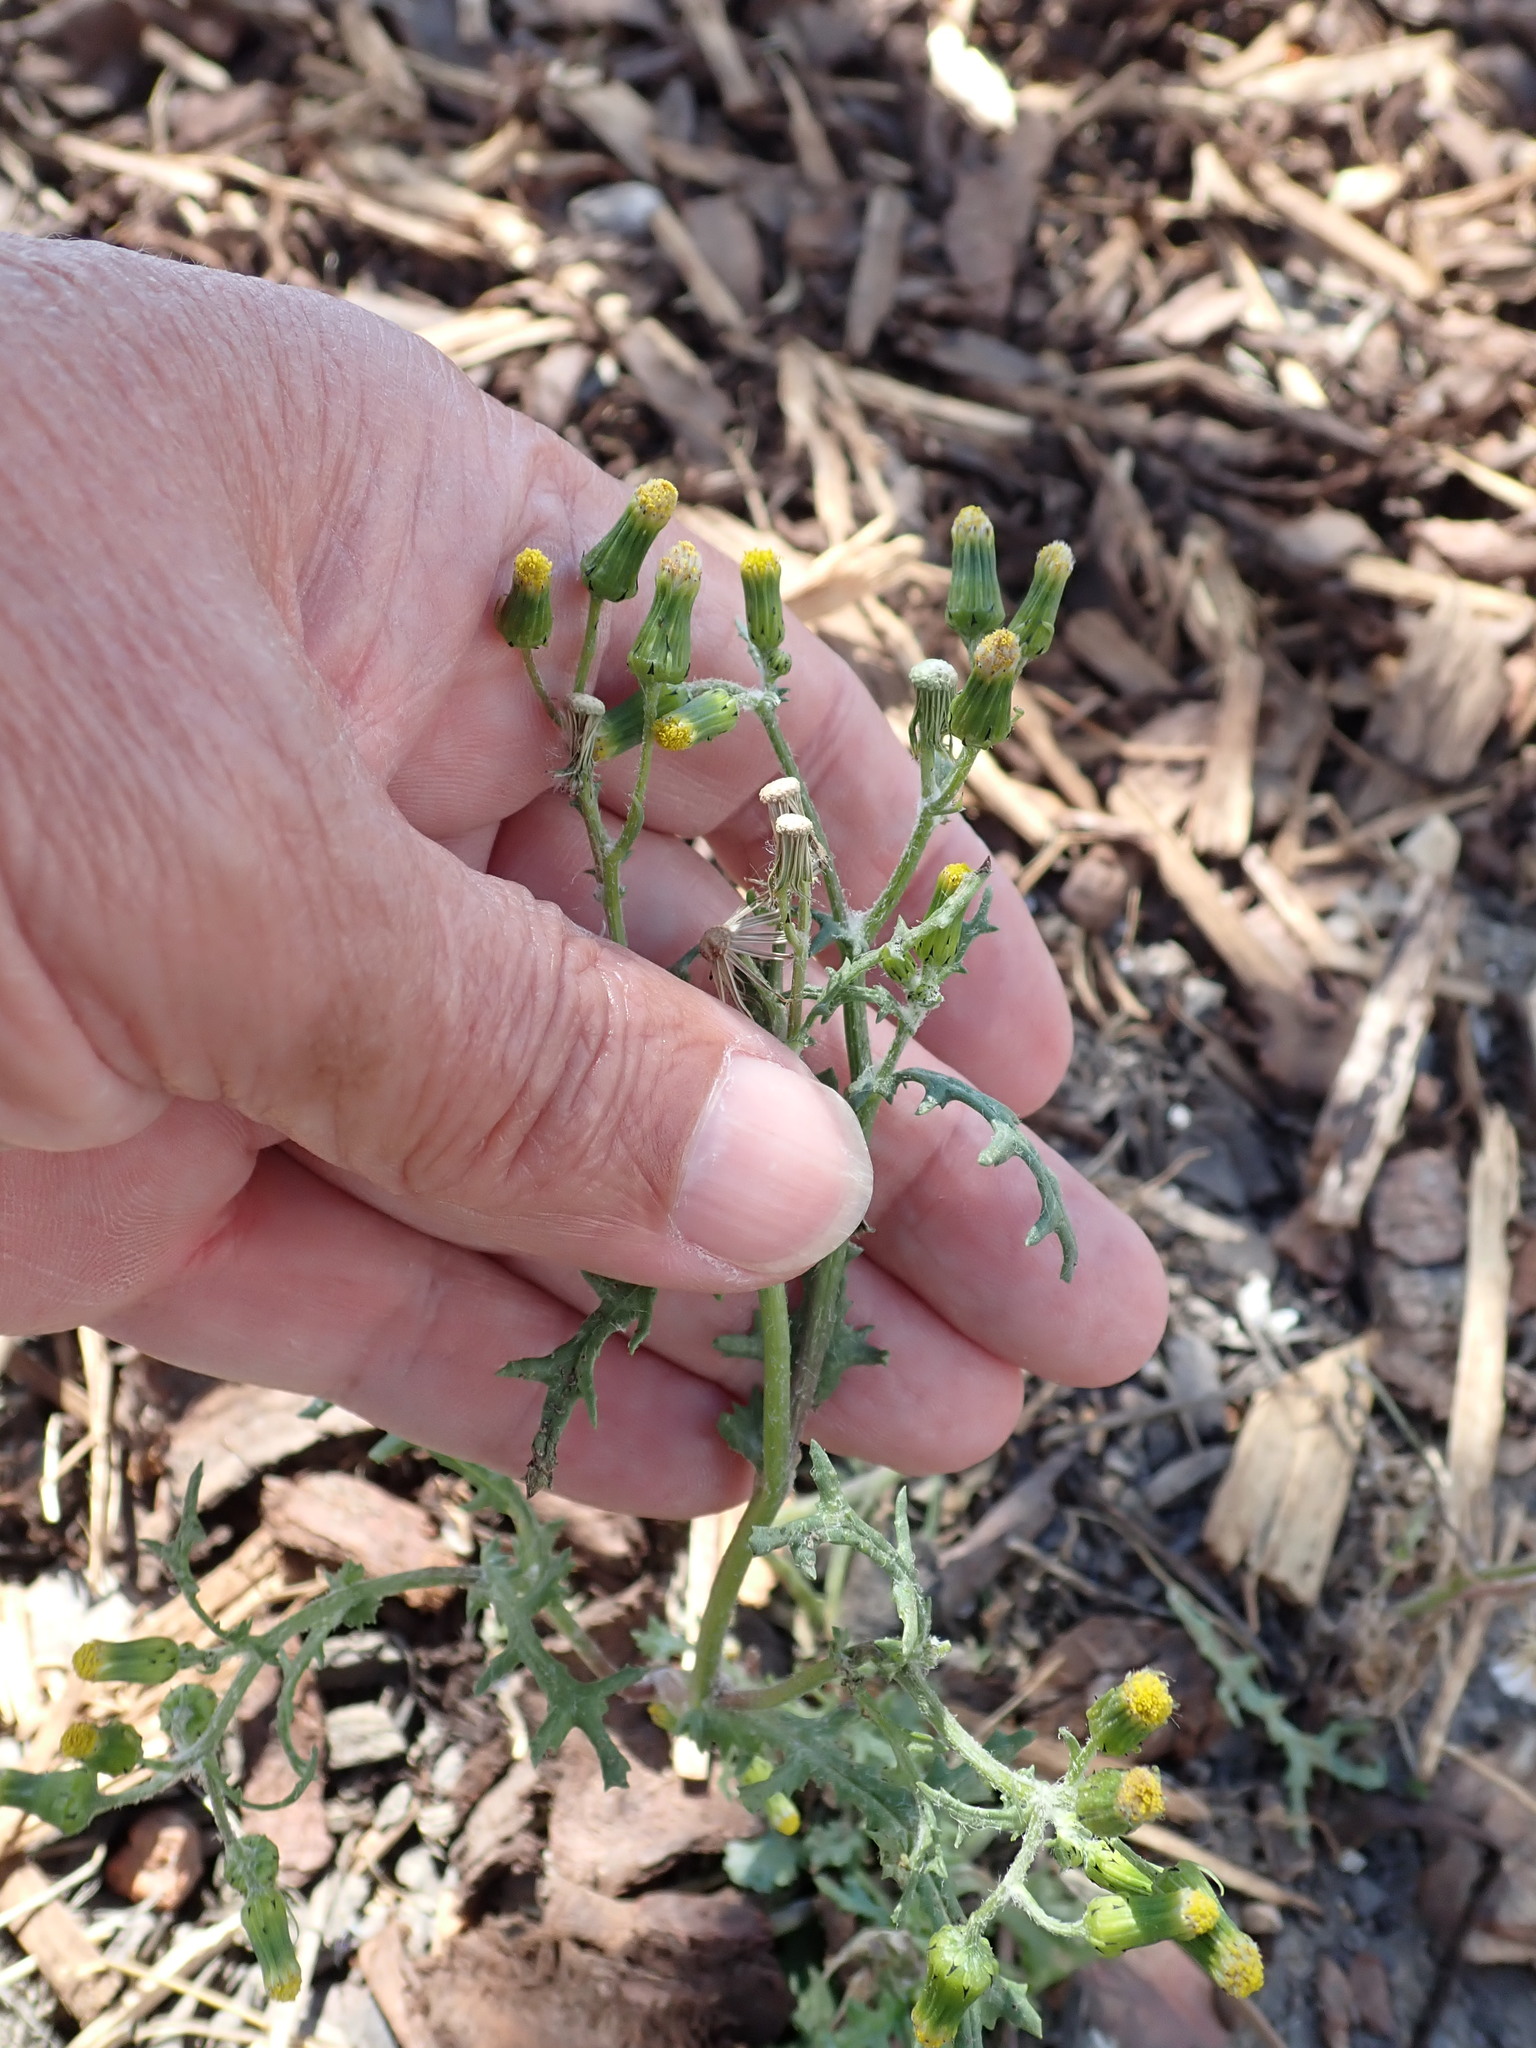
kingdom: Plantae
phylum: Tracheophyta
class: Magnoliopsida
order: Asterales
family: Asteraceae
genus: Senecio
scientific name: Senecio vulgaris
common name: Old-man-in-the-spring
